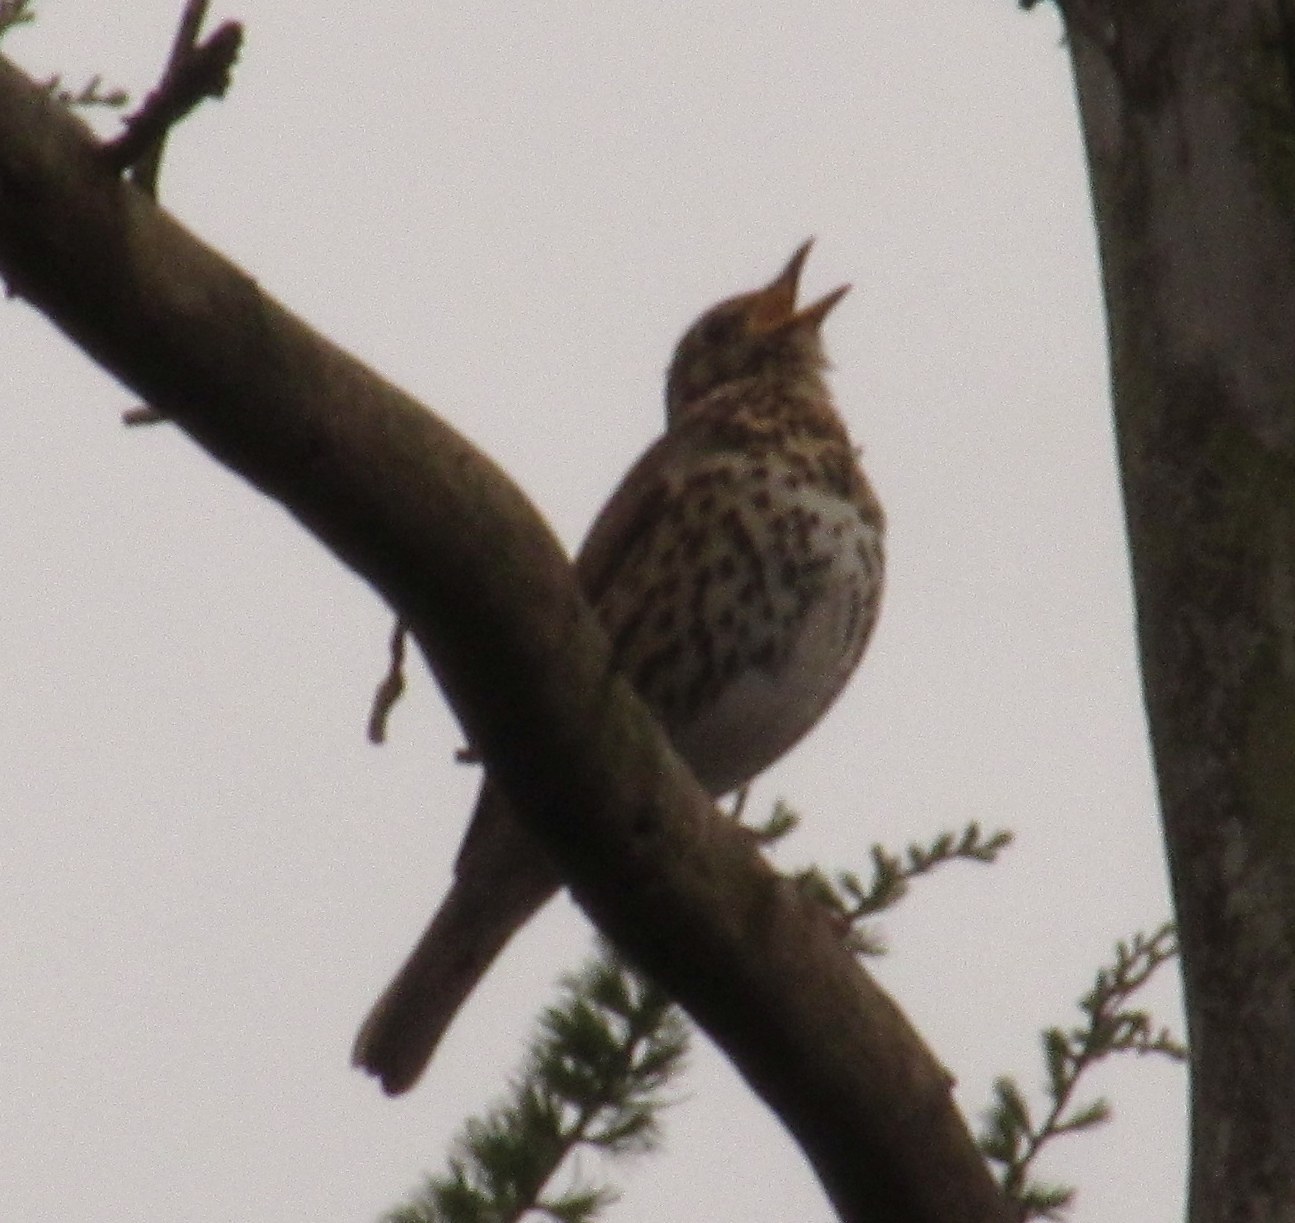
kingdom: Animalia
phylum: Chordata
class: Aves
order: Passeriformes
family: Turdidae
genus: Turdus
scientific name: Turdus philomelos
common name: Song thrush
